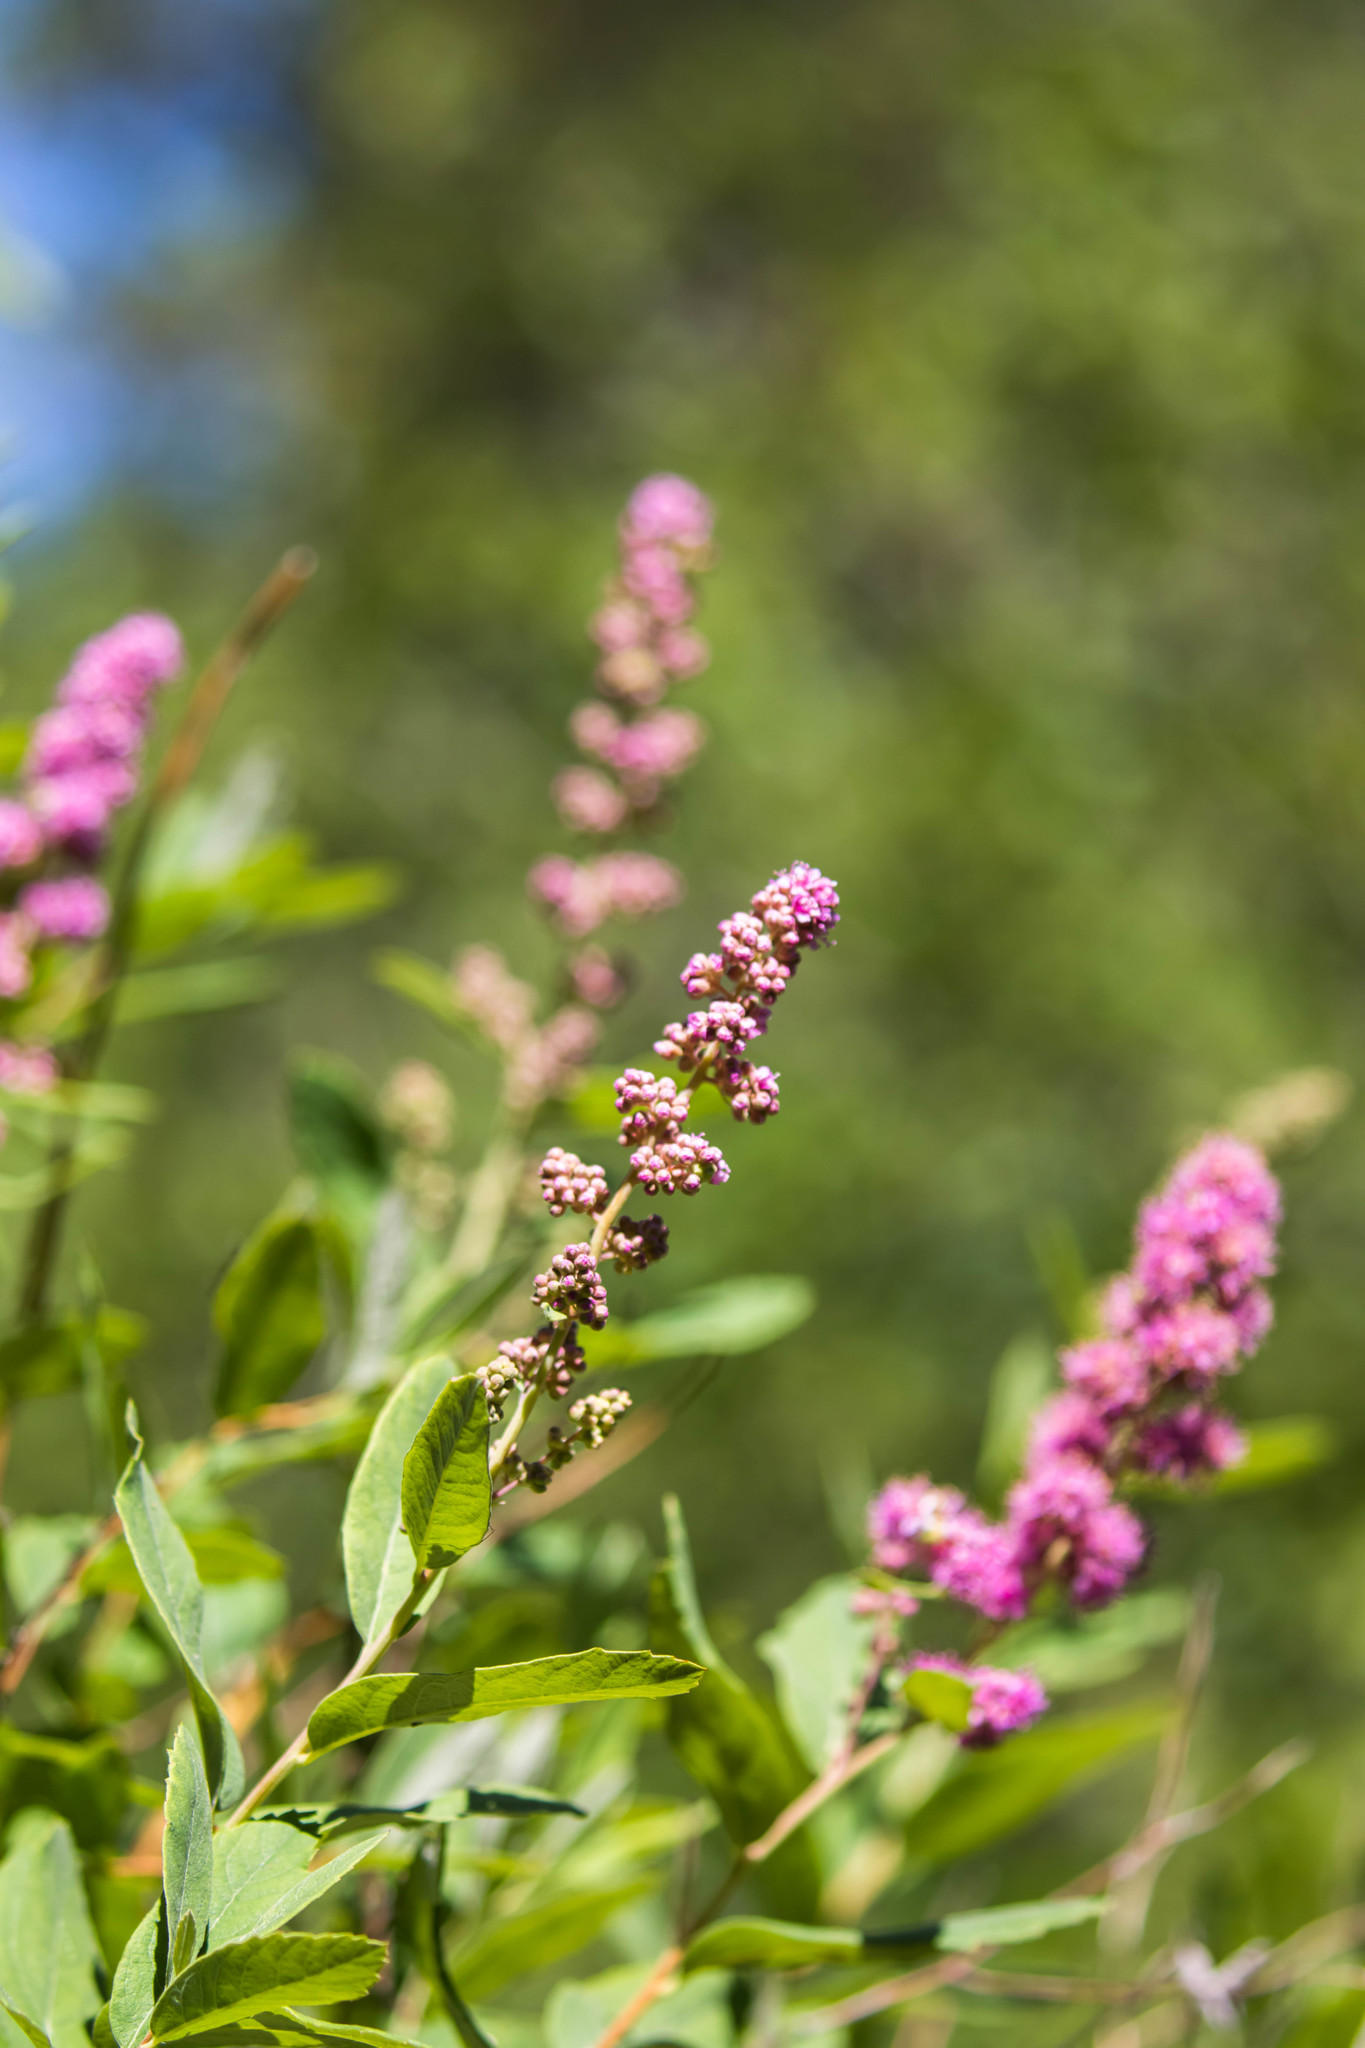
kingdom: Plantae
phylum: Tracheophyta
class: Magnoliopsida
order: Rosales
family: Rosaceae
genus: Spiraea
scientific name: Spiraea douglasii
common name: Steeplebush
